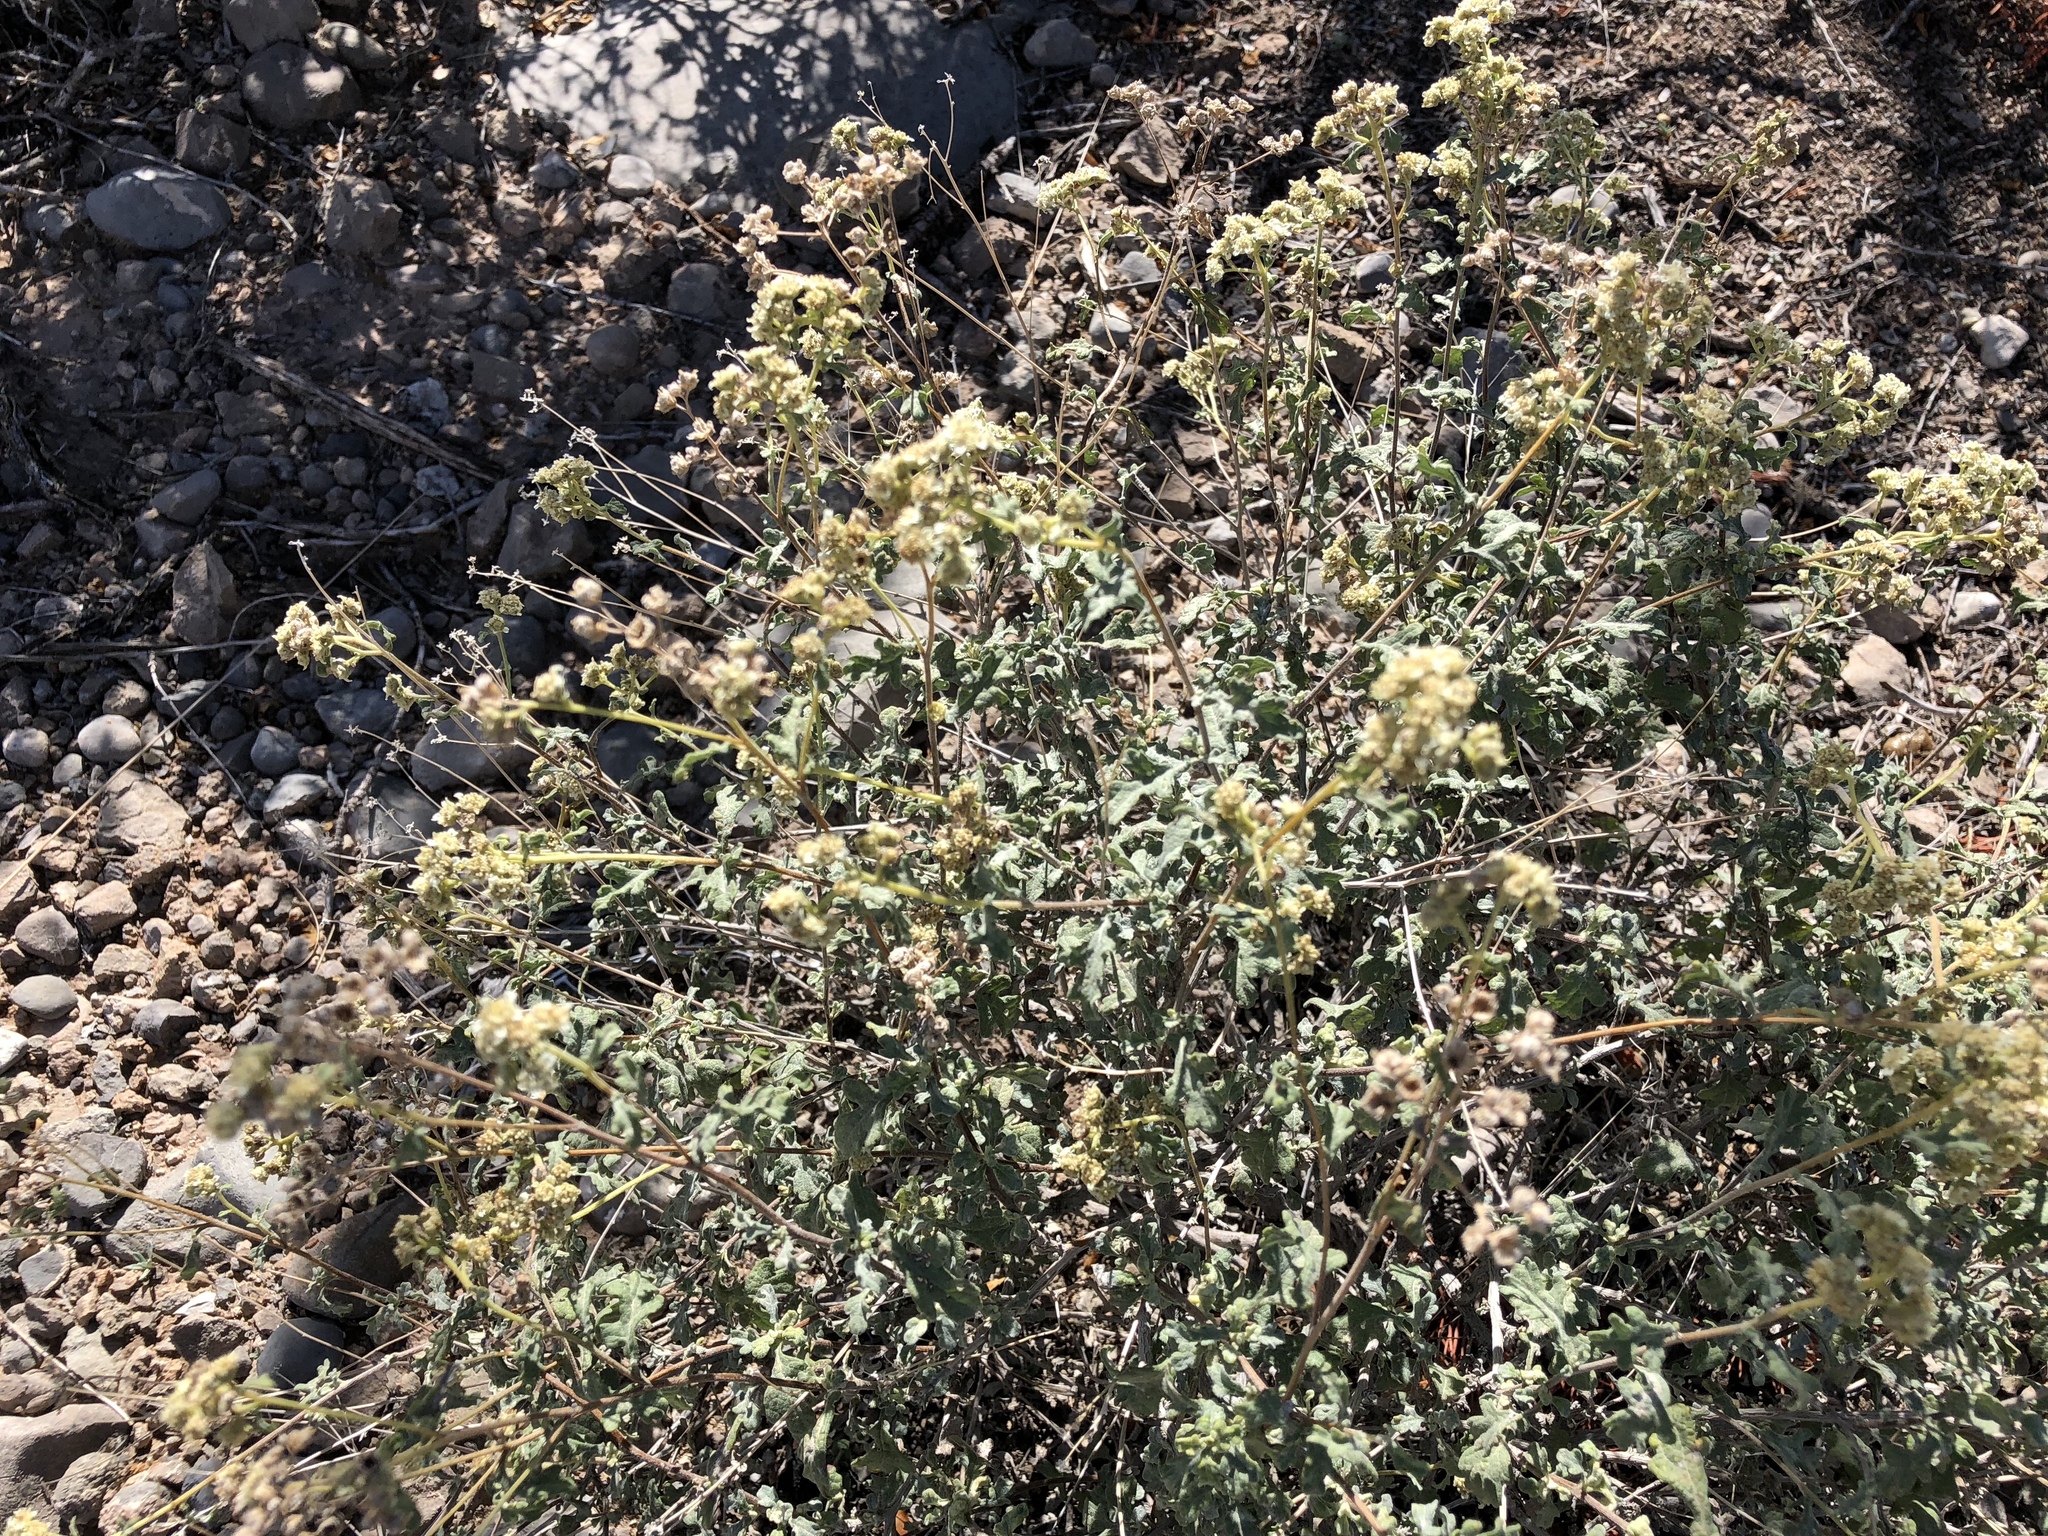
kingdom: Plantae
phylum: Tracheophyta
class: Magnoliopsida
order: Asterales
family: Asteraceae
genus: Parthenium
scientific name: Parthenium incanum
